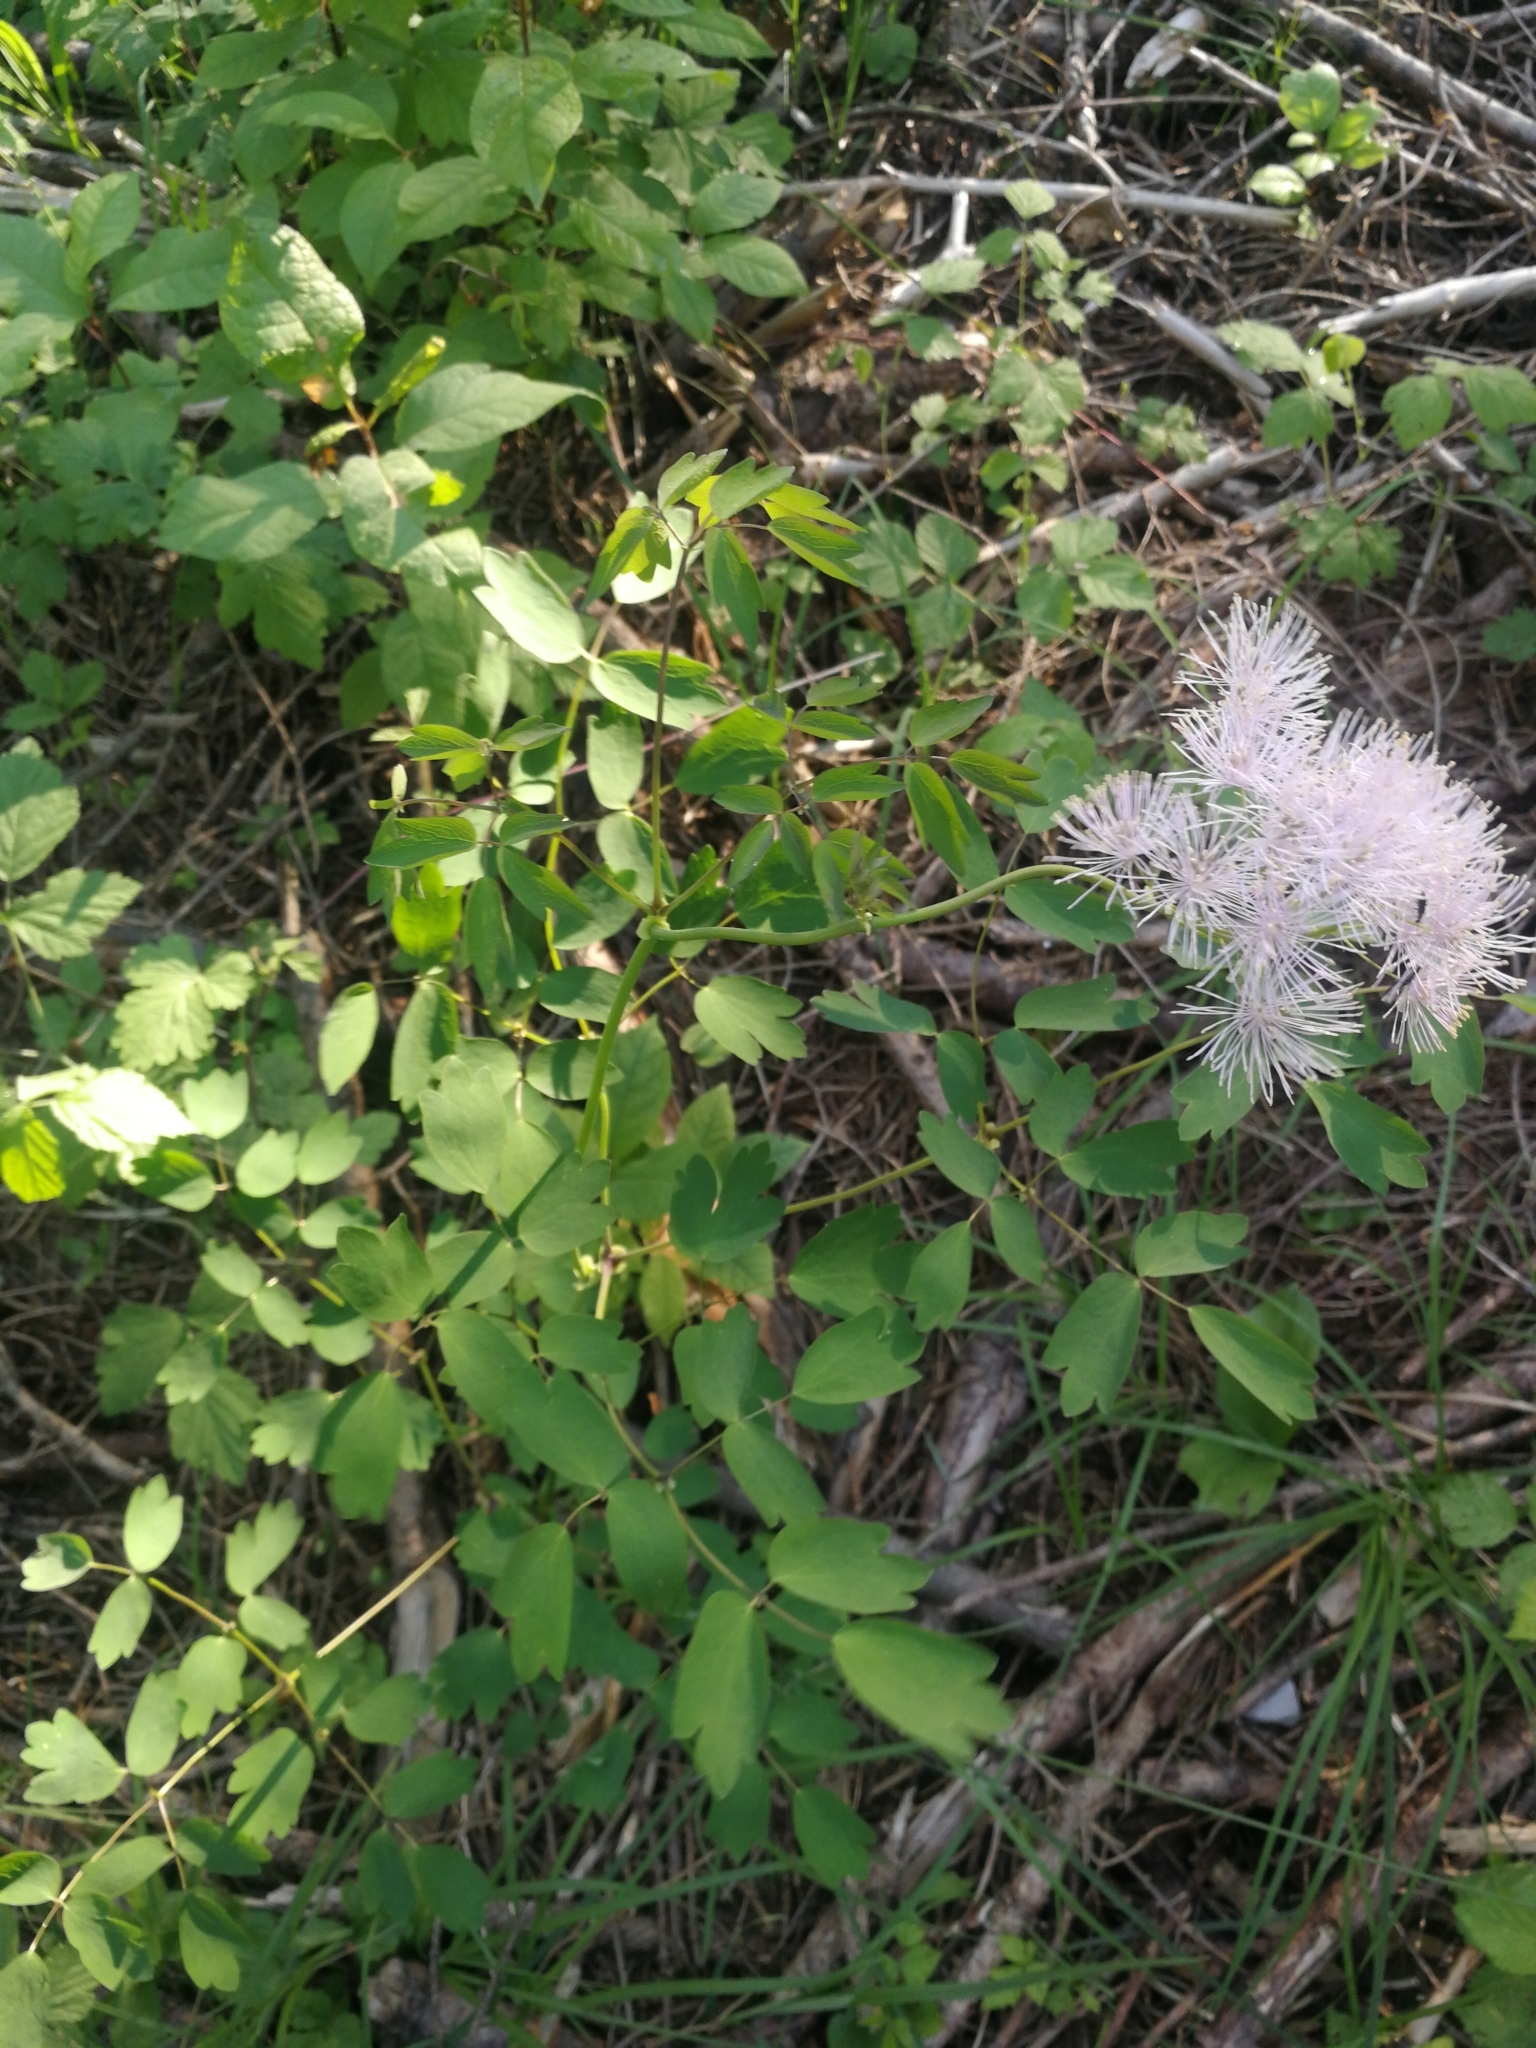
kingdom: Plantae
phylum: Tracheophyta
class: Magnoliopsida
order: Ranunculales
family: Ranunculaceae
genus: Thalictrum
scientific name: Thalictrum aquilegiifolium
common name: French meadow-rue
